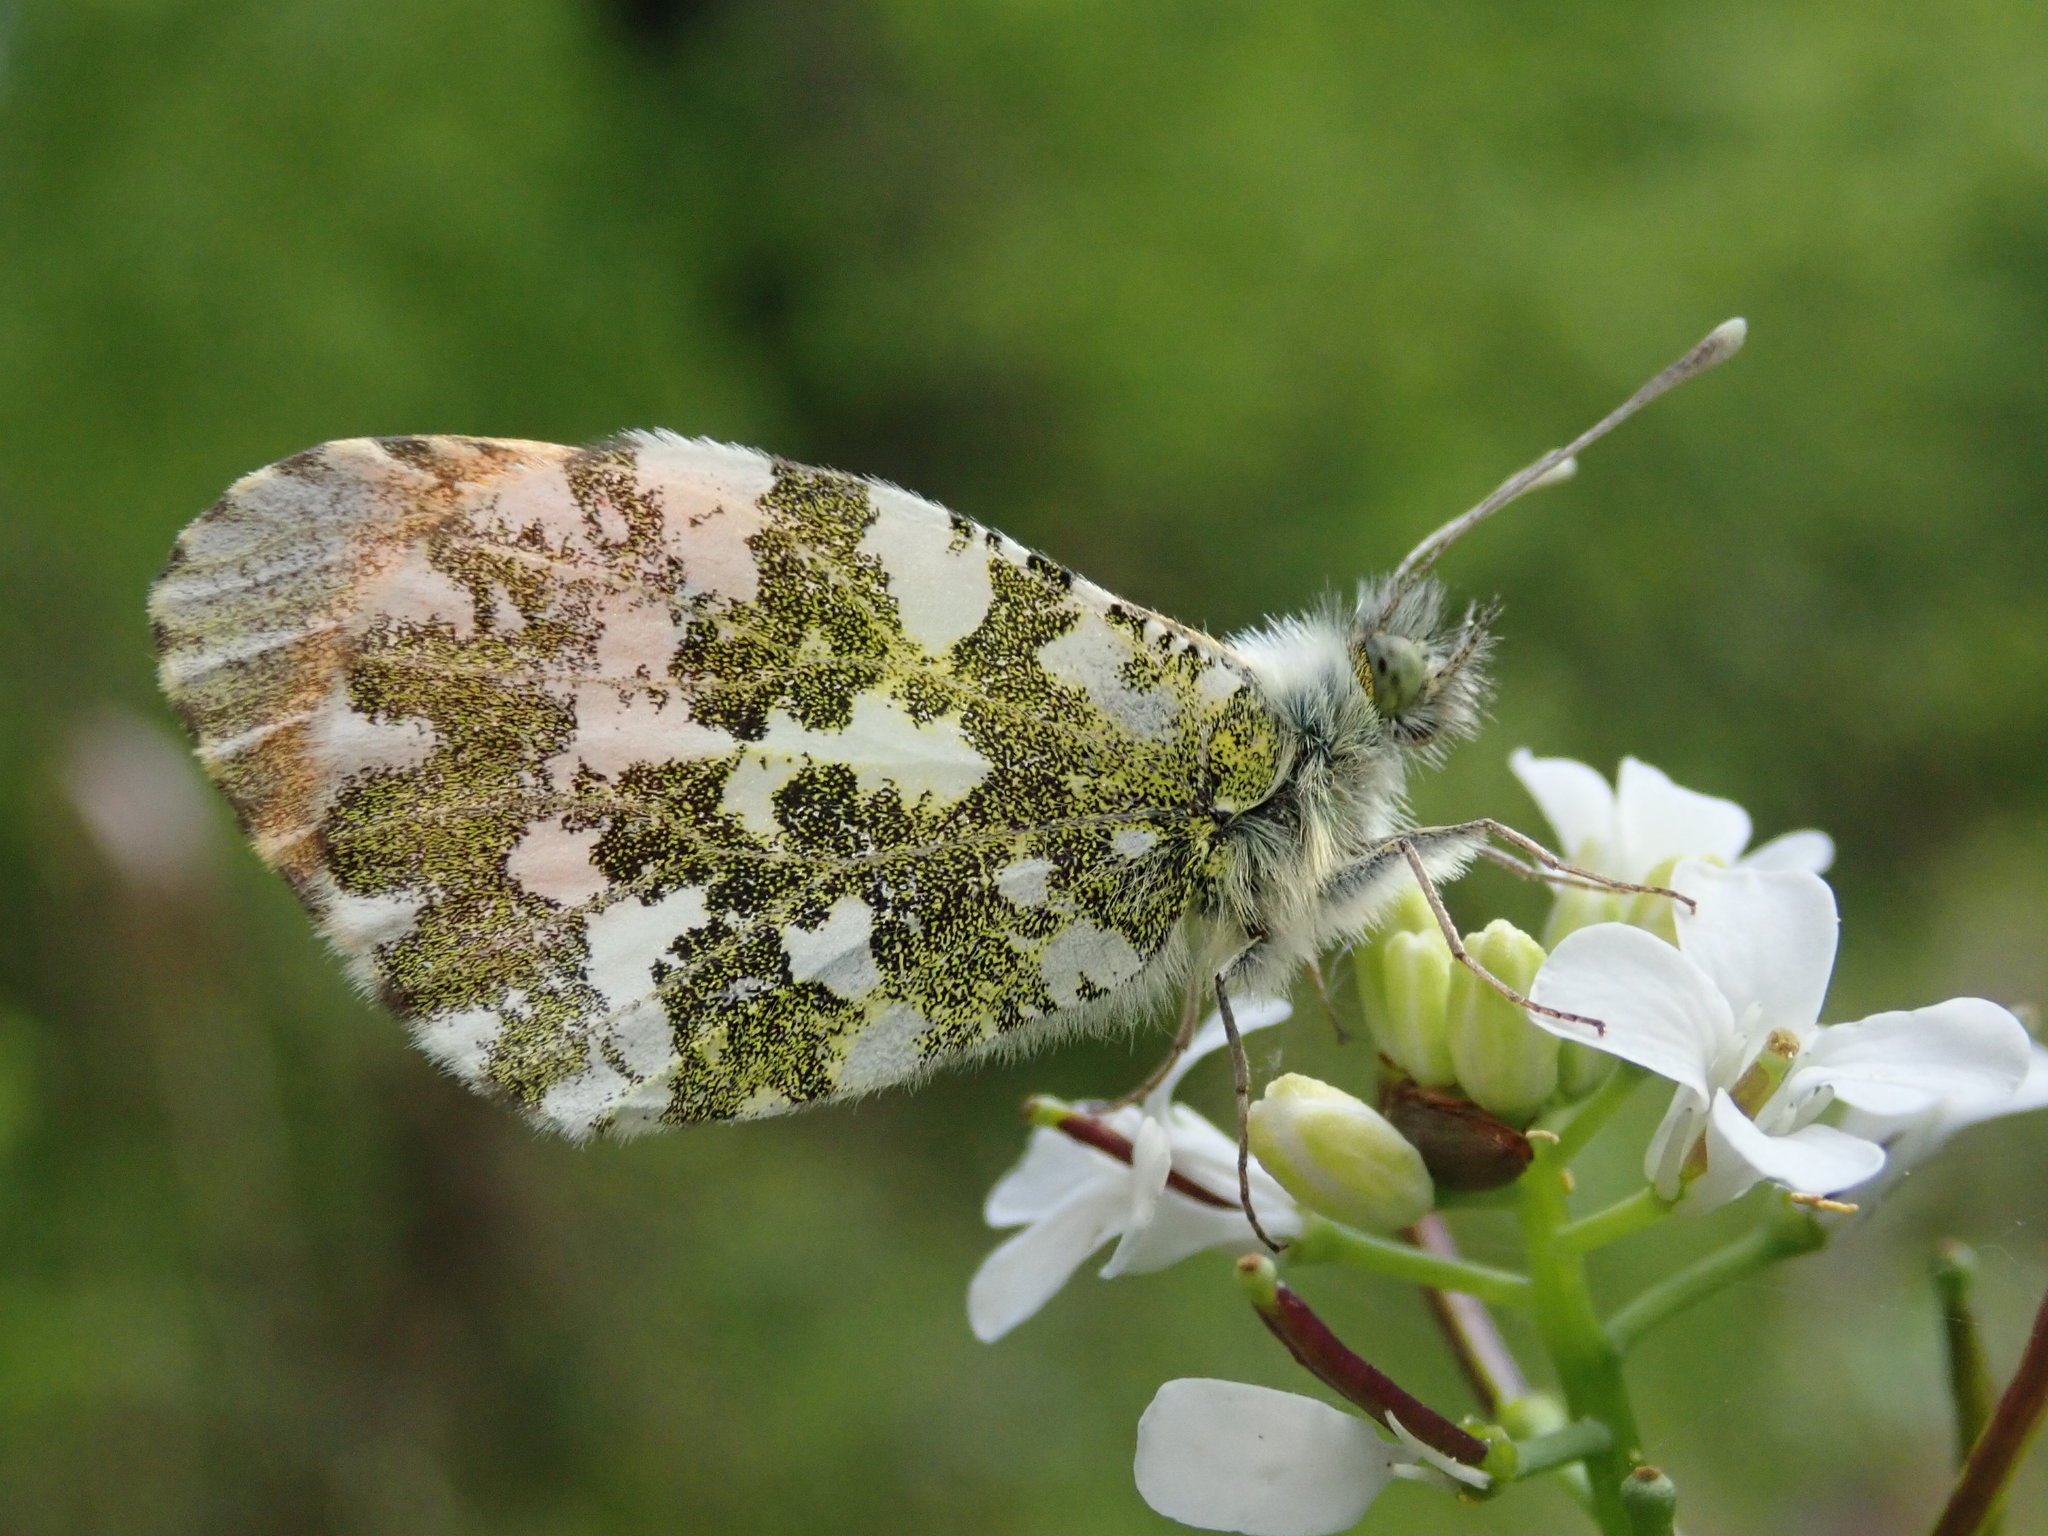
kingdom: Animalia
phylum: Arthropoda
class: Insecta
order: Lepidoptera
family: Pieridae
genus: Anthocharis
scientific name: Anthocharis cardamines
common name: Orange-tip
